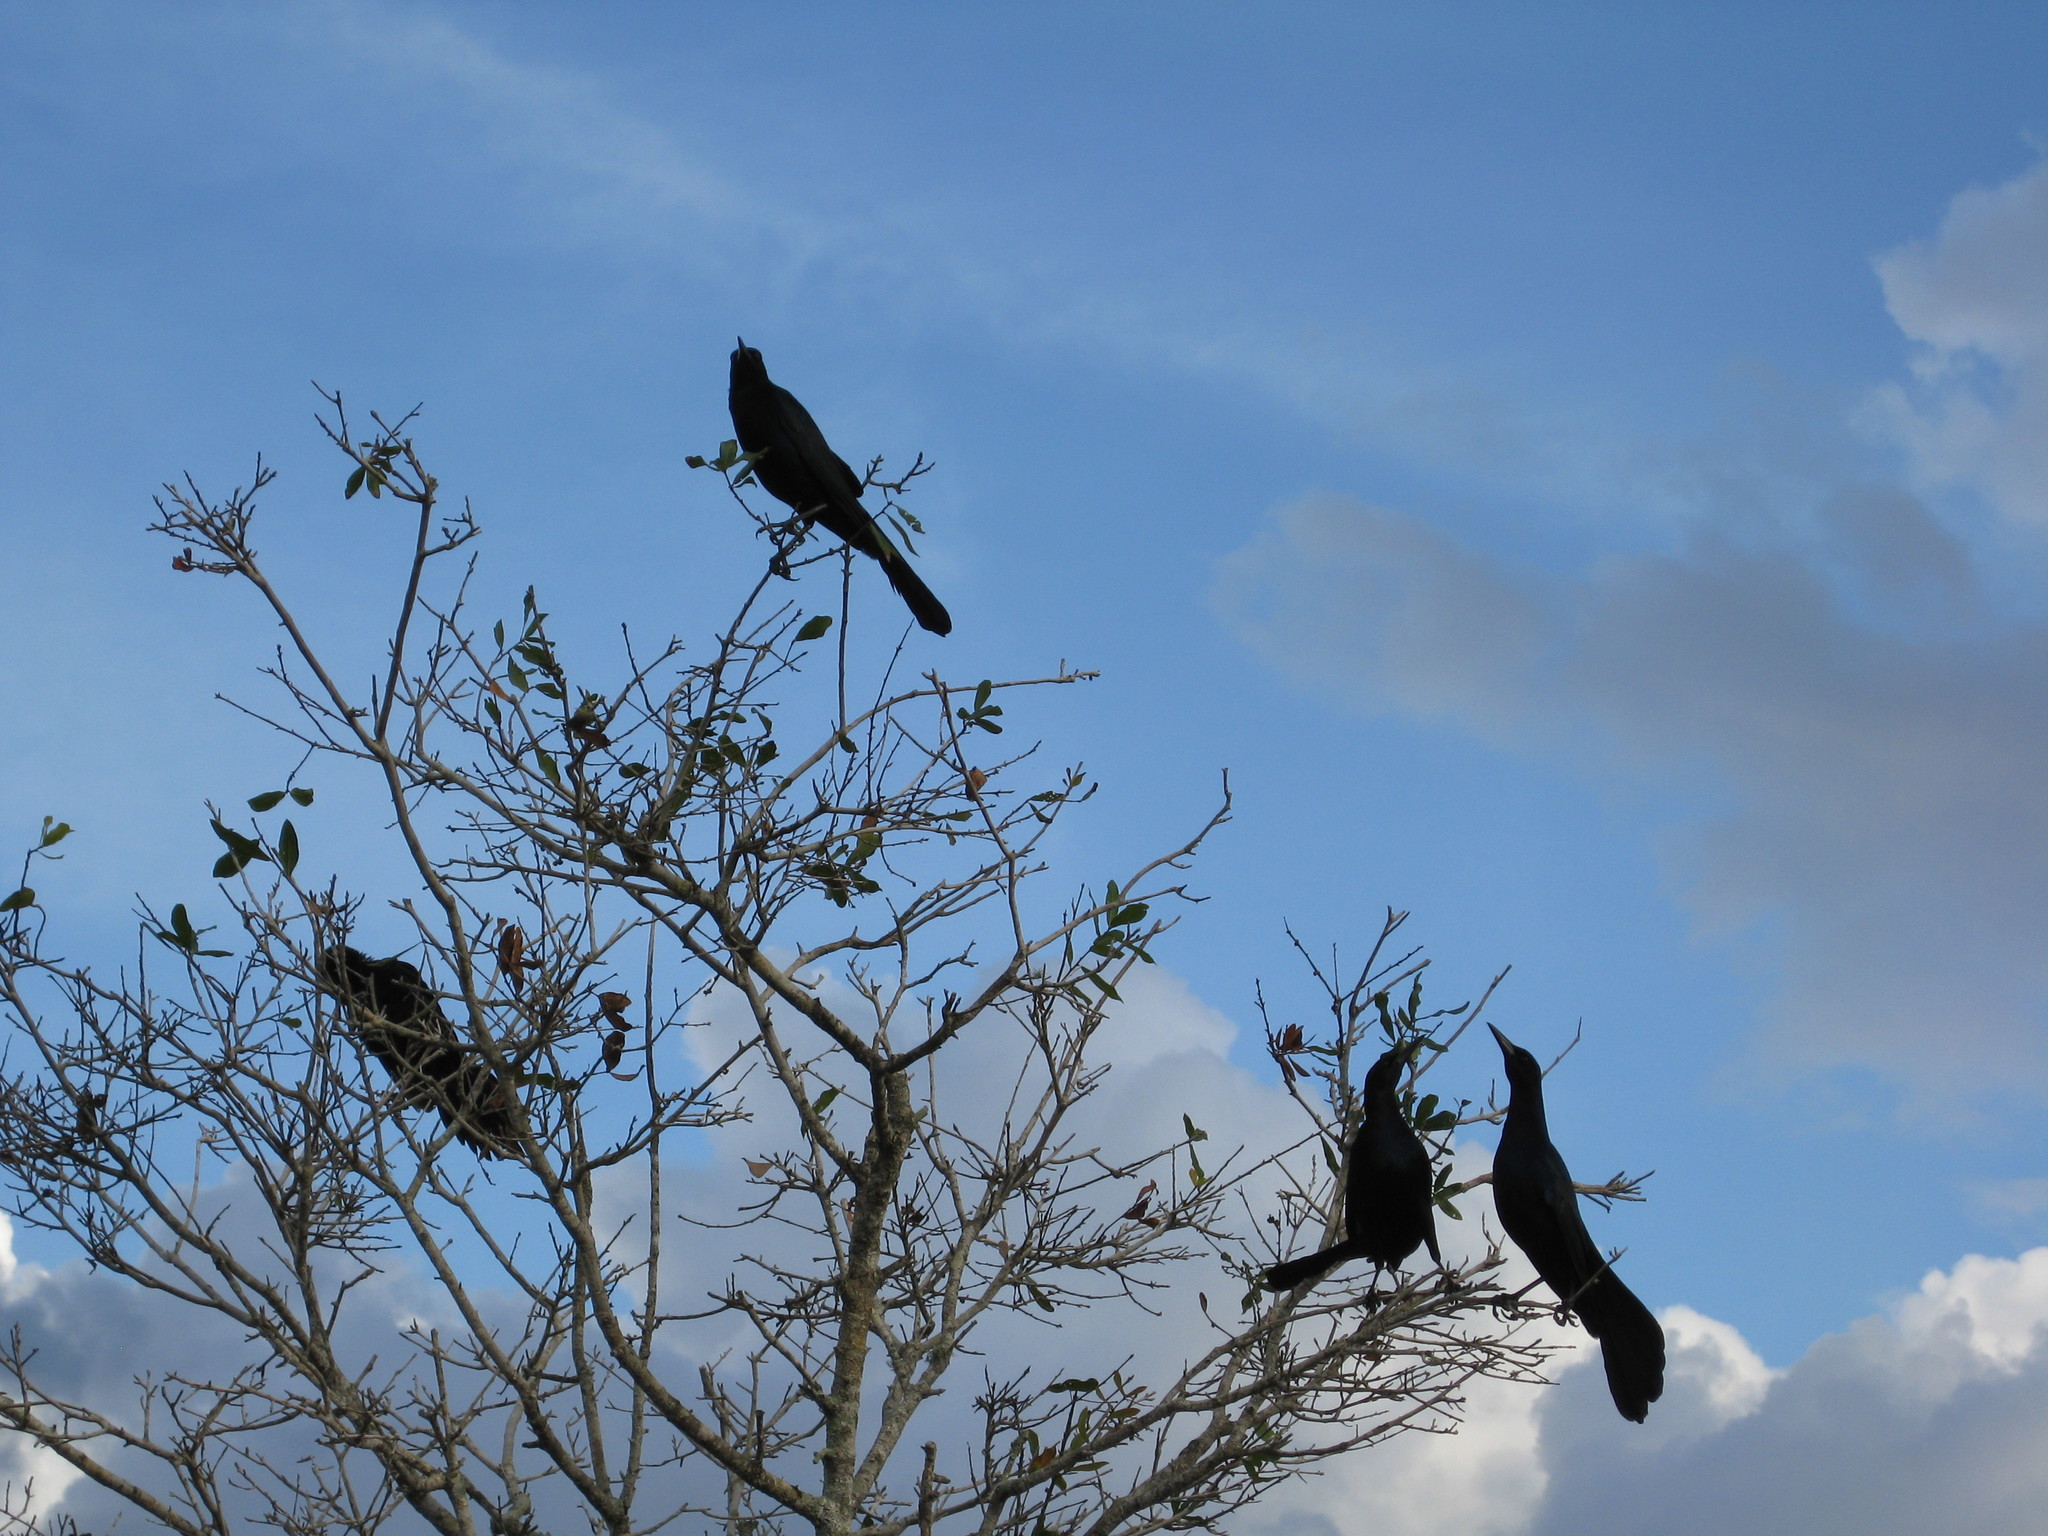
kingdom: Animalia
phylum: Chordata
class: Aves
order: Passeriformes
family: Icteridae
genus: Quiscalus
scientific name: Quiscalus major
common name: Boat-tailed grackle
